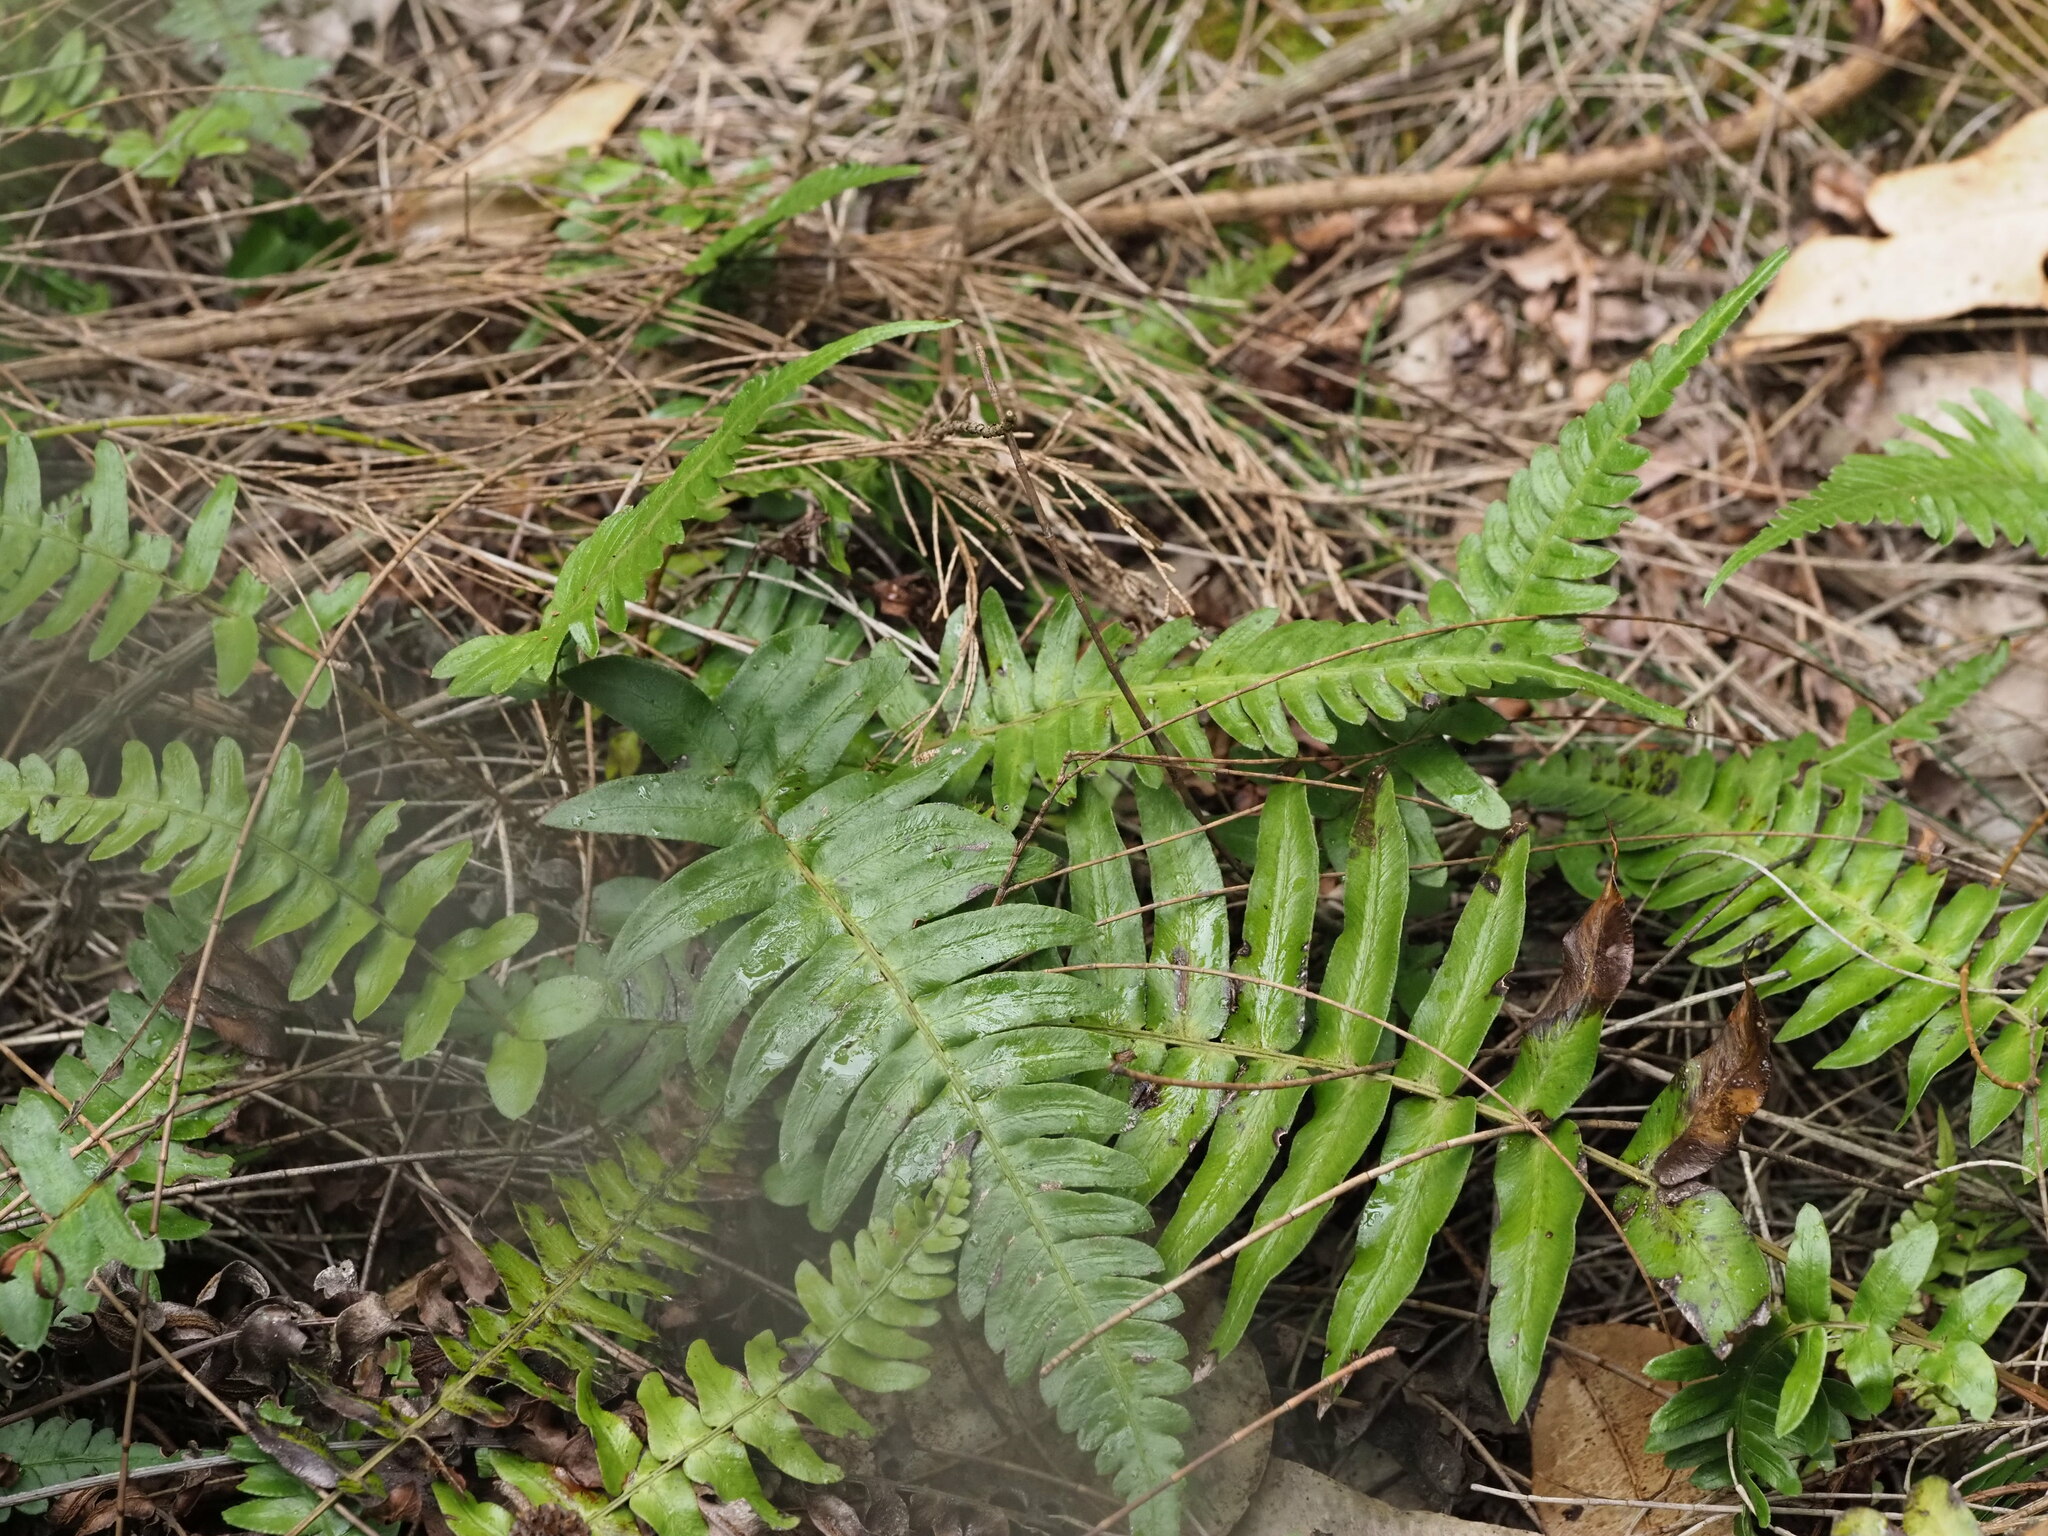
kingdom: Plantae
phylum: Tracheophyta
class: Polypodiopsida
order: Polypodiales
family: Blechnaceae
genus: Blechnum
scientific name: Blechnum appendiculatum
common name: Palm fern
